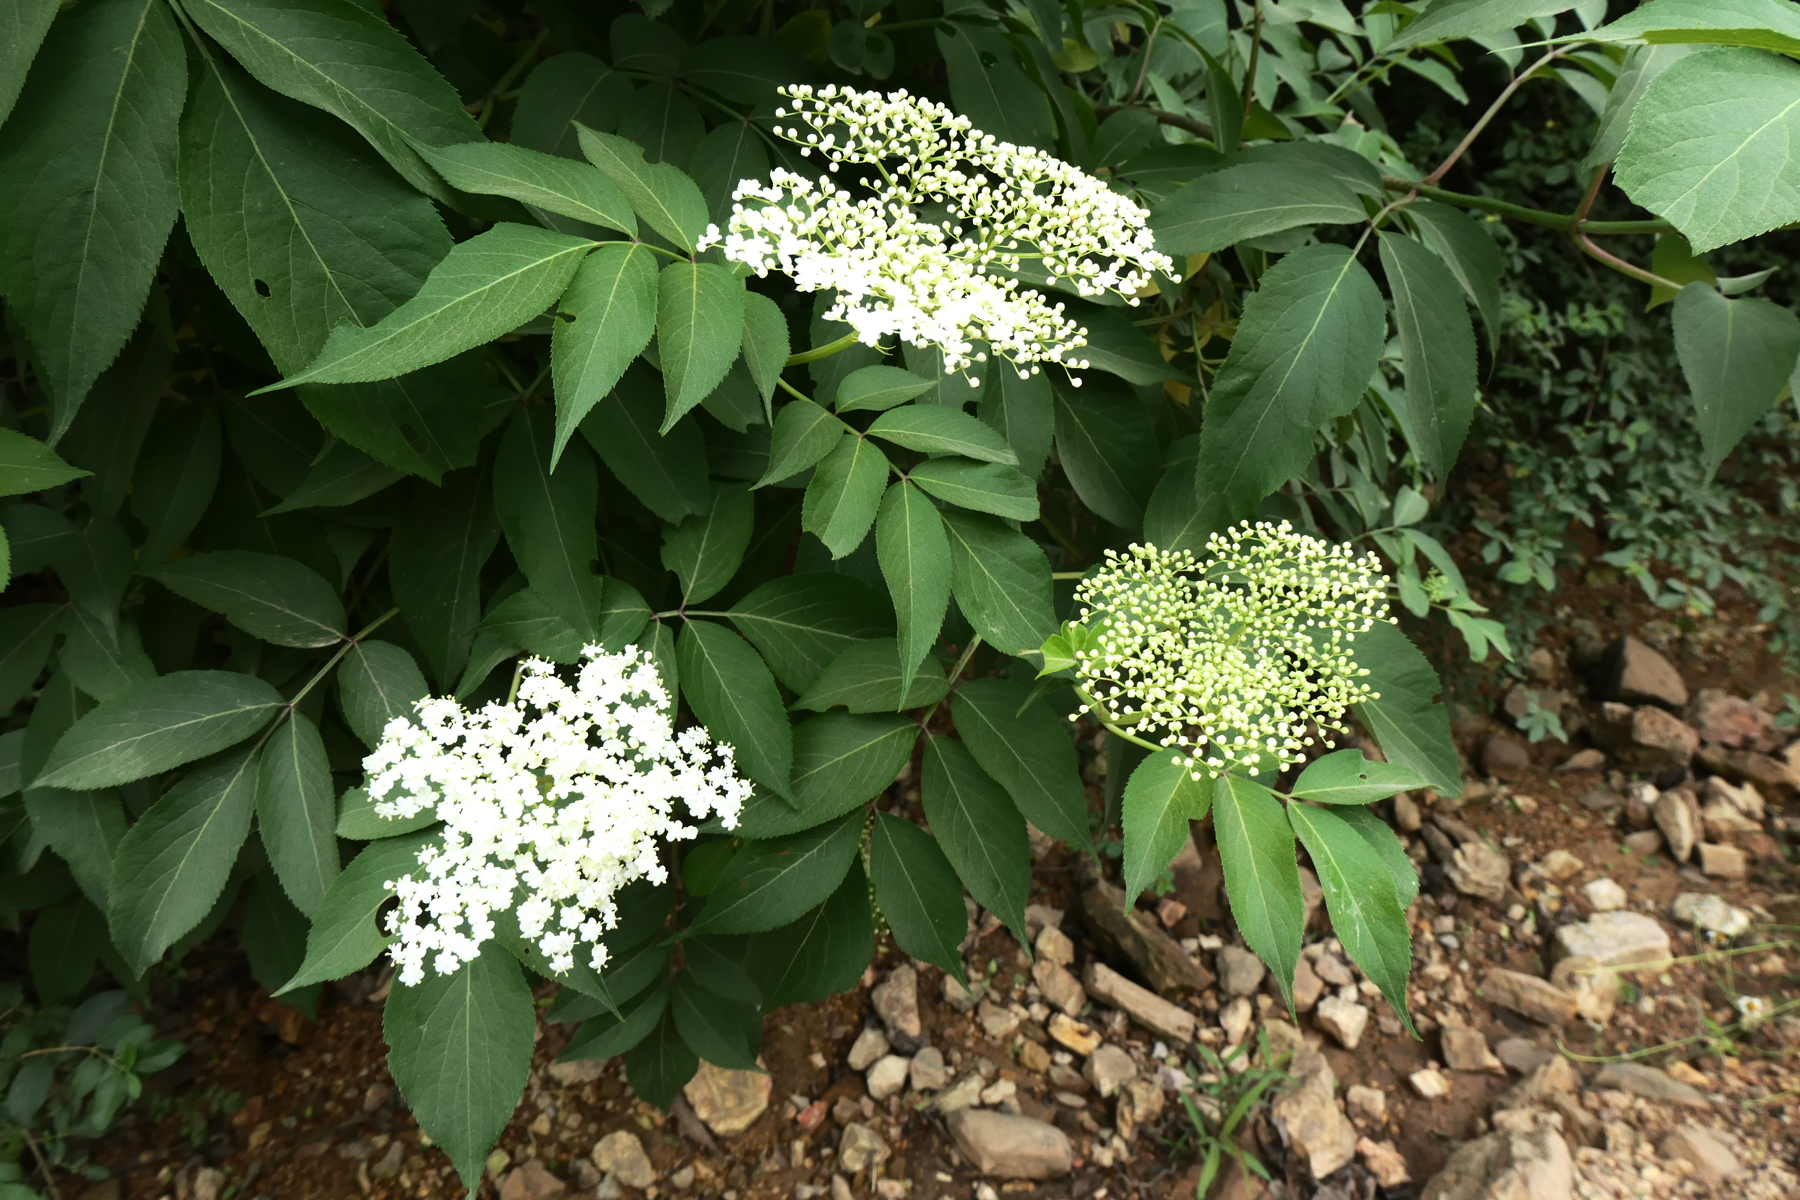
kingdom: Plantae
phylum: Tracheophyta
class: Magnoliopsida
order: Dipsacales
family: Viburnaceae
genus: Sambucus
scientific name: Sambucus canadensis
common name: American elder
